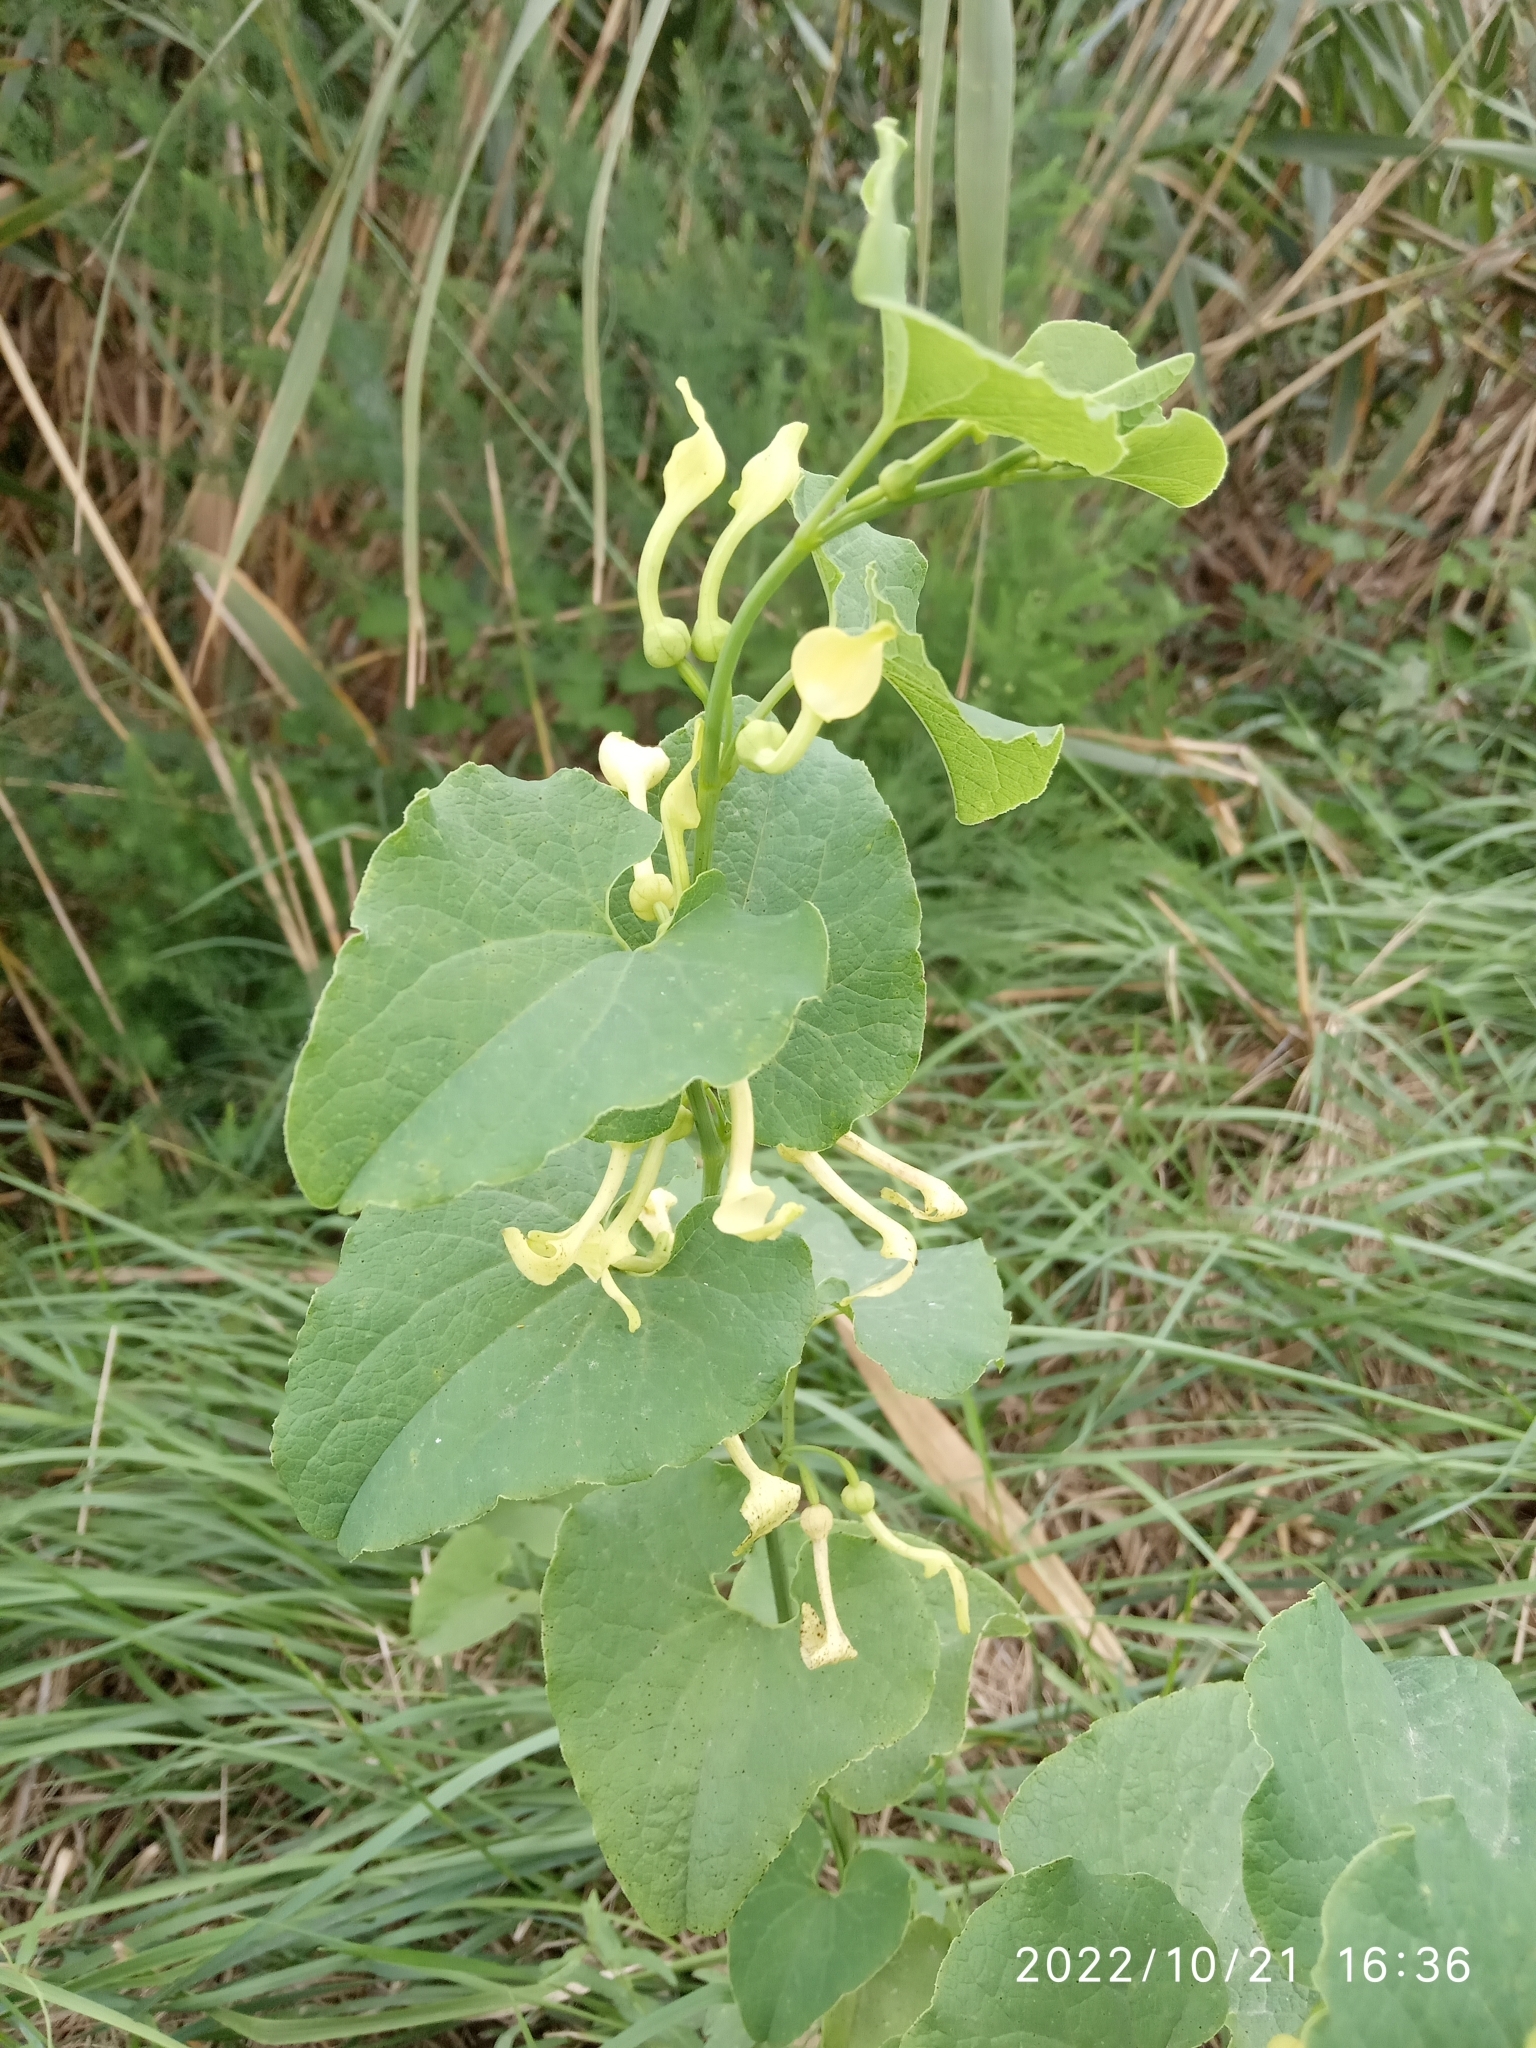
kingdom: Plantae
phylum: Tracheophyta
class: Magnoliopsida
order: Piperales
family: Aristolochiaceae
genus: Aristolochia
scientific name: Aristolochia clematitis
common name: Birthwort
